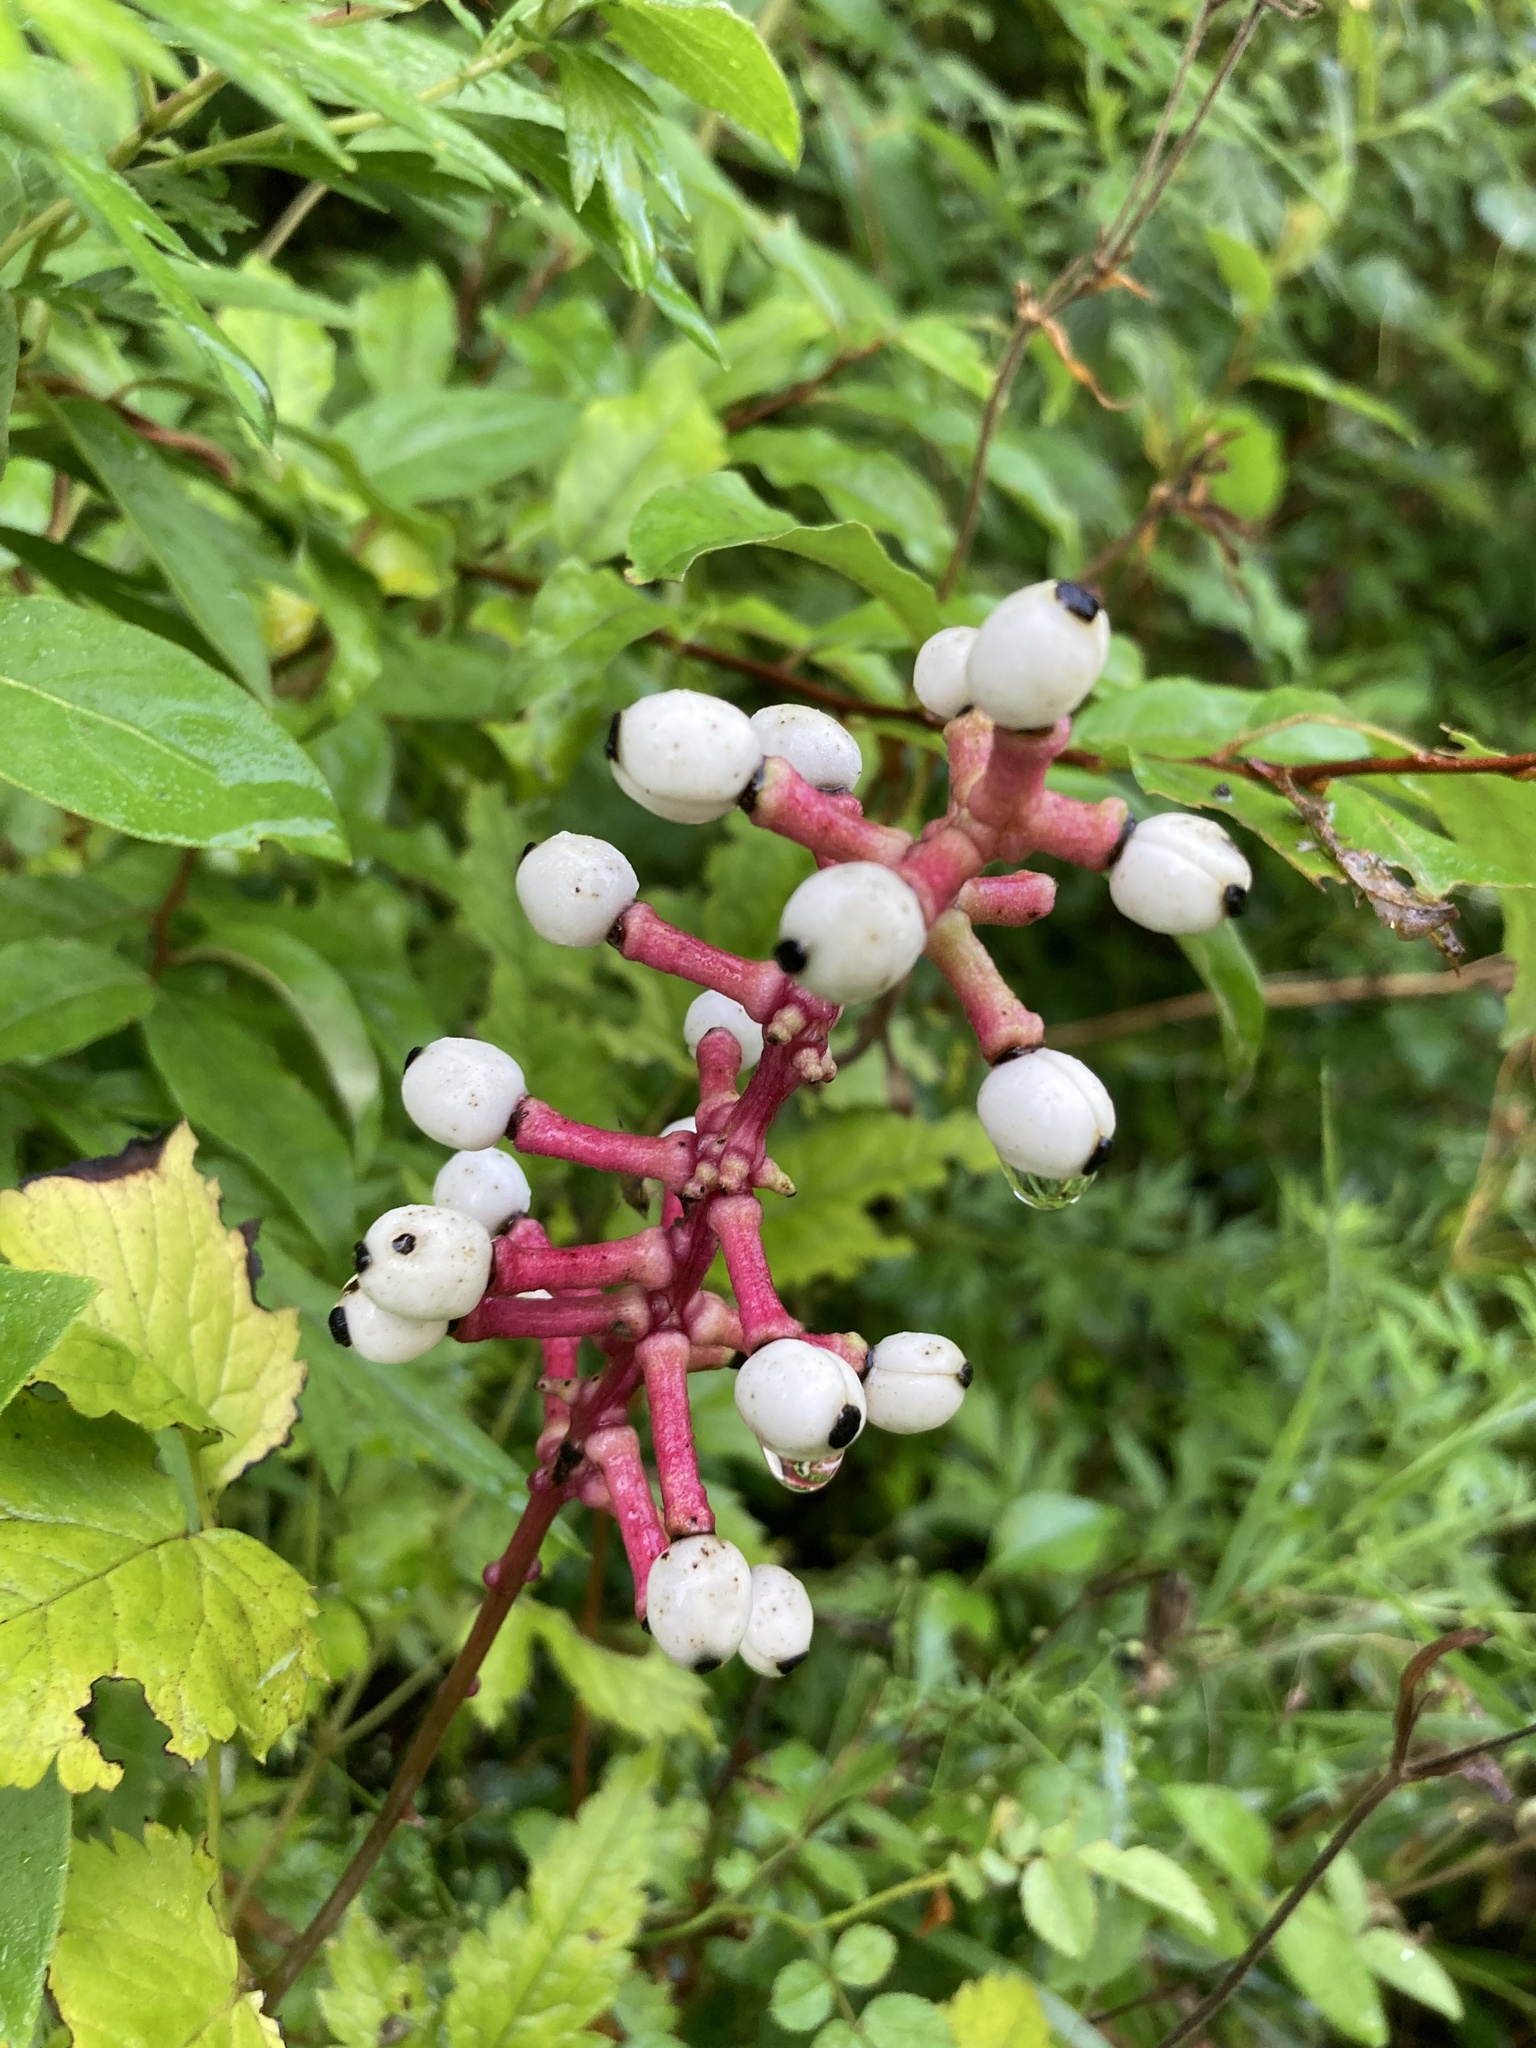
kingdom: Plantae
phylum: Tracheophyta
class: Magnoliopsida
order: Ranunculales
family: Ranunculaceae
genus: Actaea
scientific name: Actaea pachypoda
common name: Doll's-eyes
